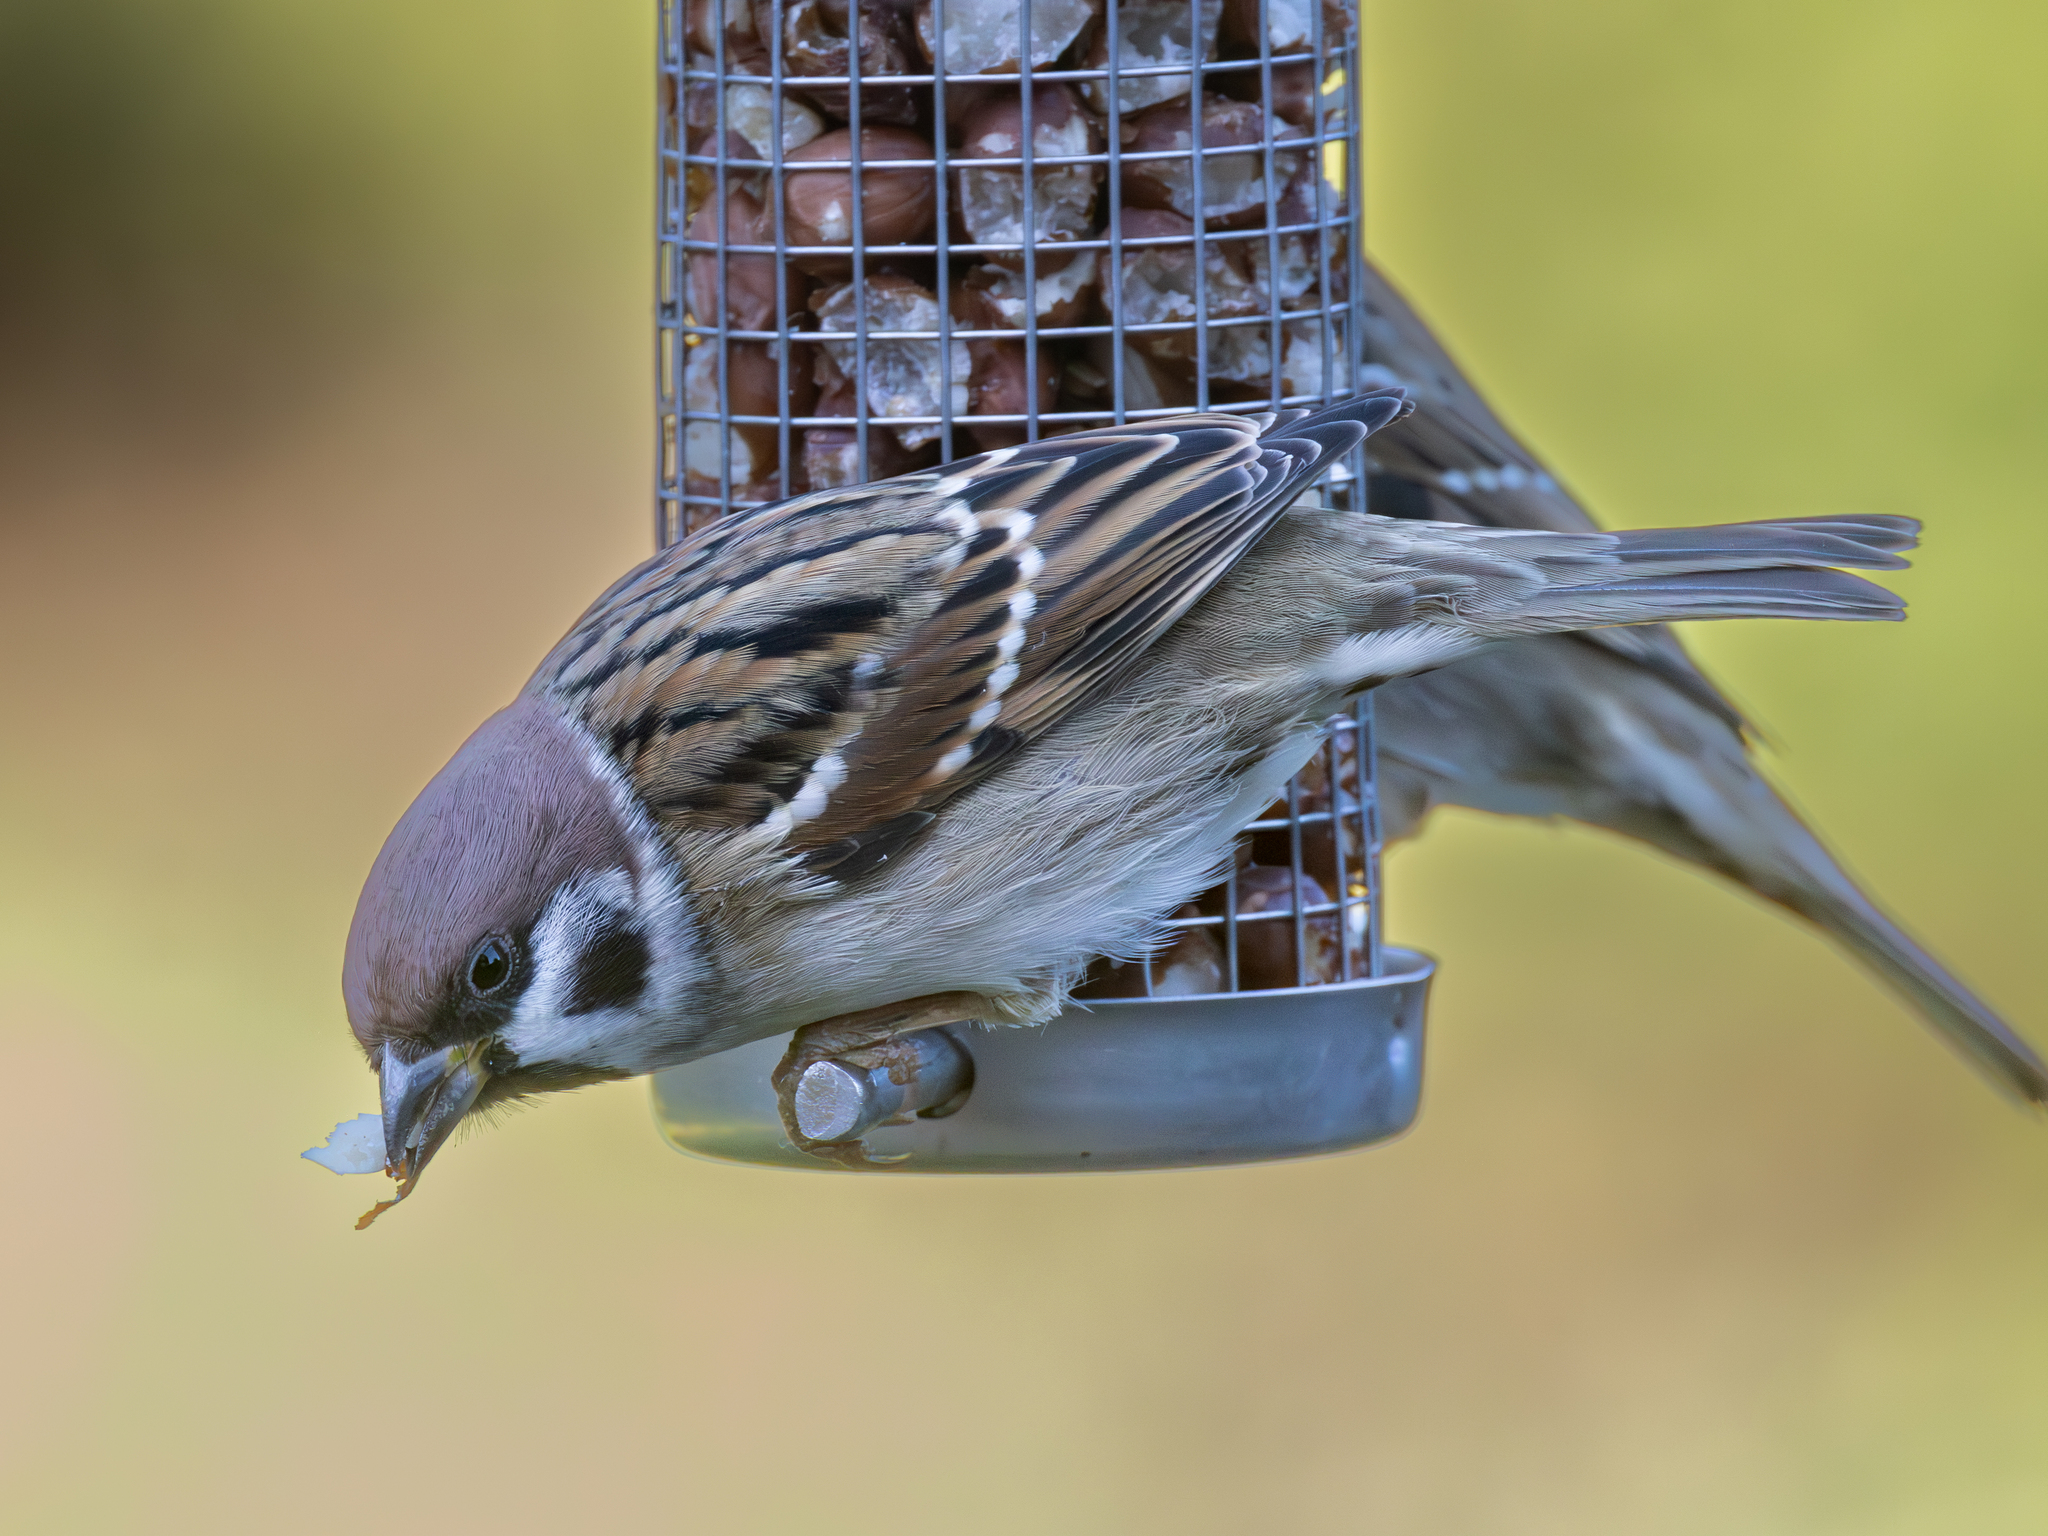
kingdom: Animalia
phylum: Chordata
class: Aves
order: Passeriformes
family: Passeridae
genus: Passer
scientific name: Passer montanus
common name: Eurasian tree sparrow
